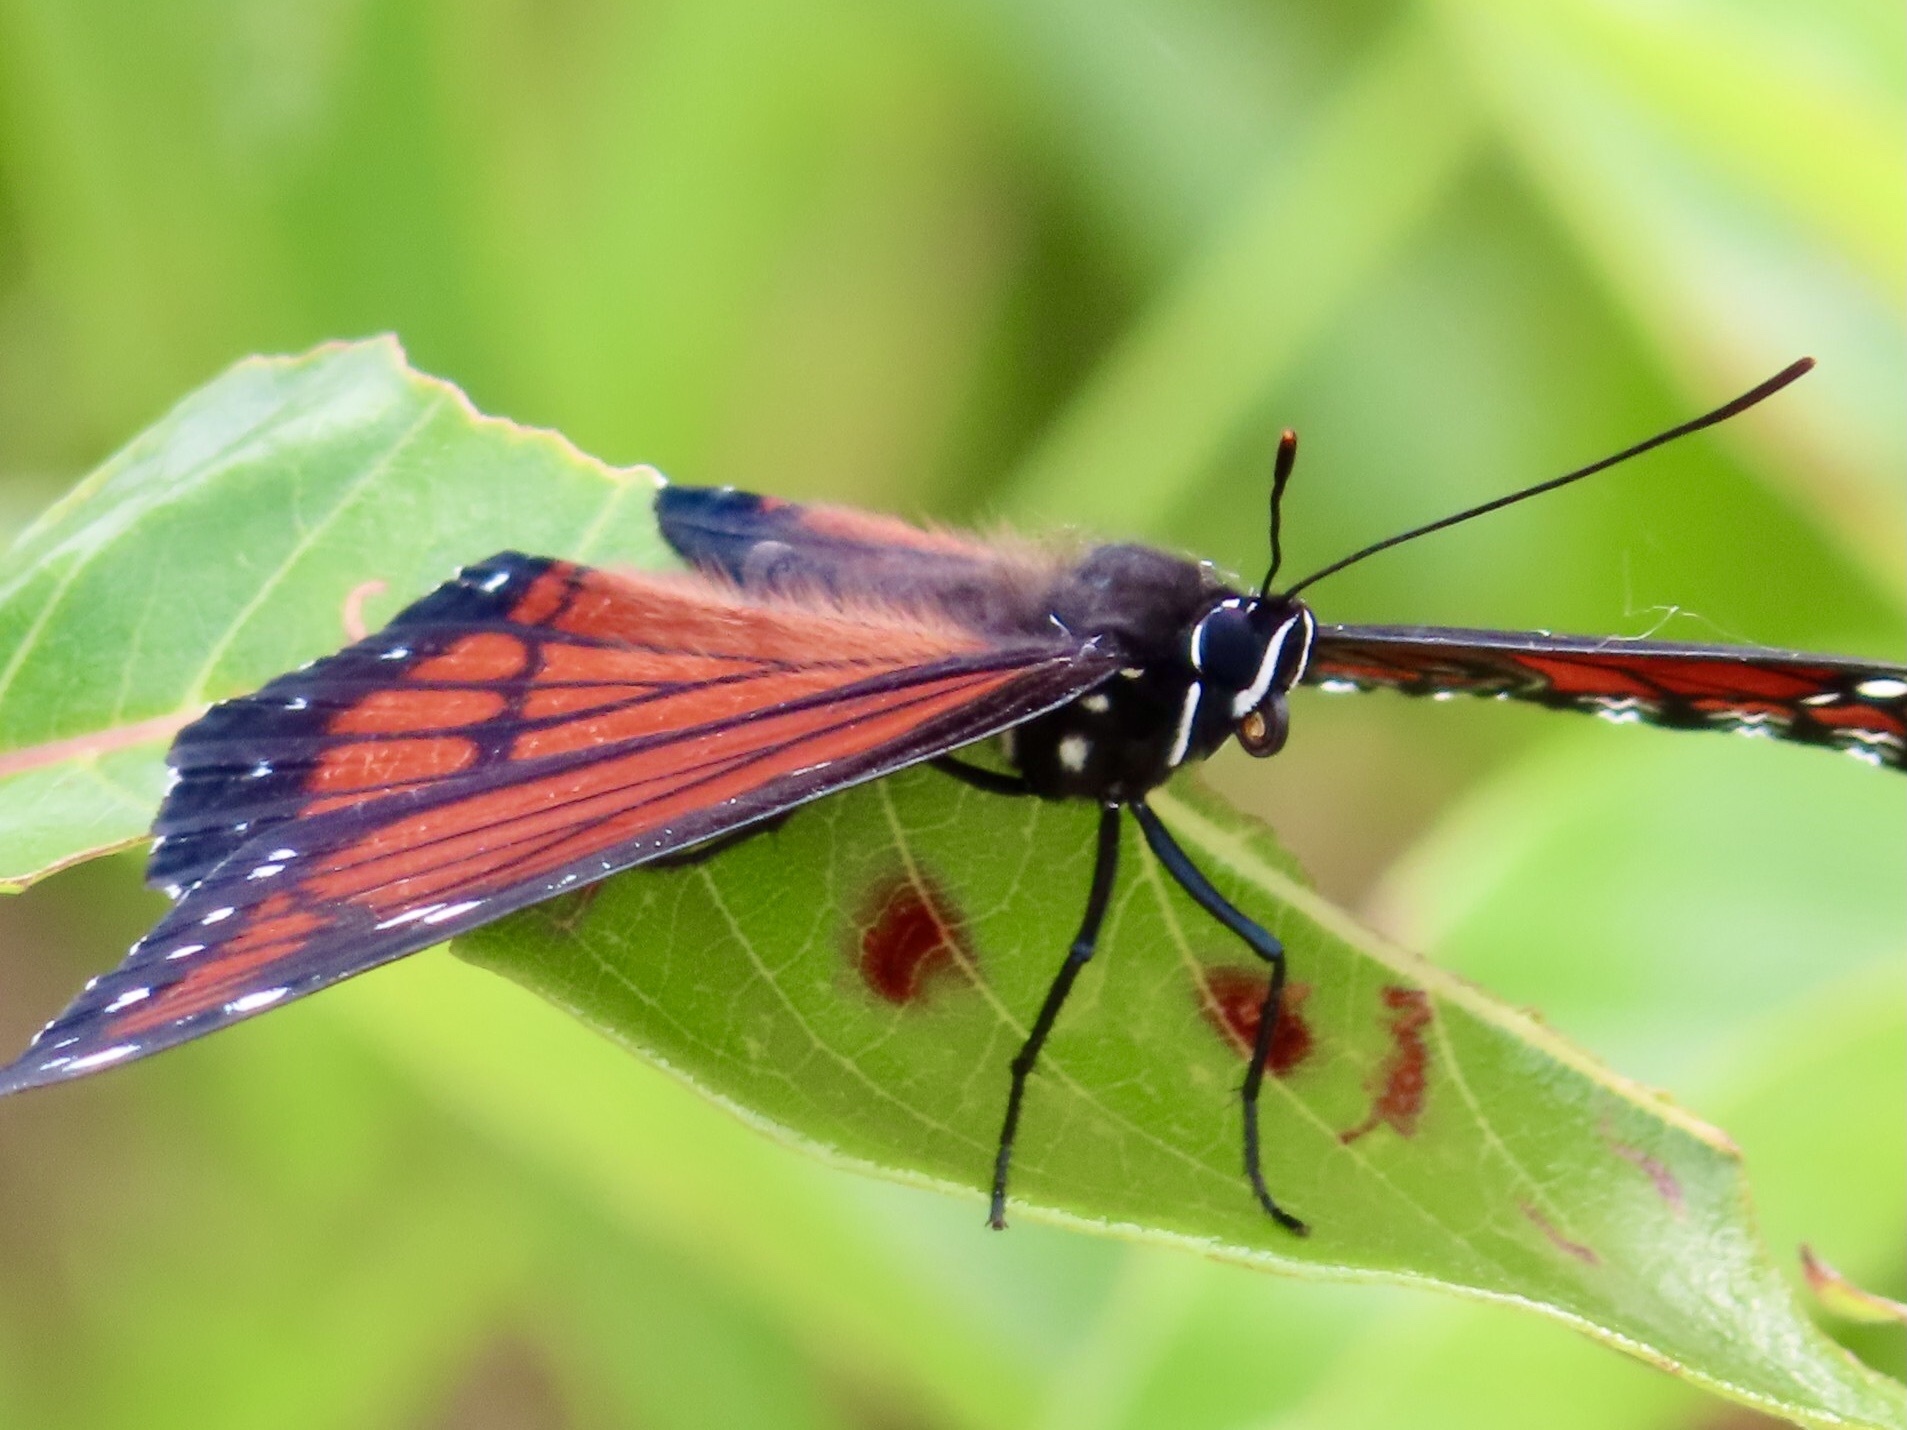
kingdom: Animalia
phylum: Arthropoda
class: Insecta
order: Lepidoptera
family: Nymphalidae
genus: Limenitis
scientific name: Limenitis archippus
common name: Viceroy
